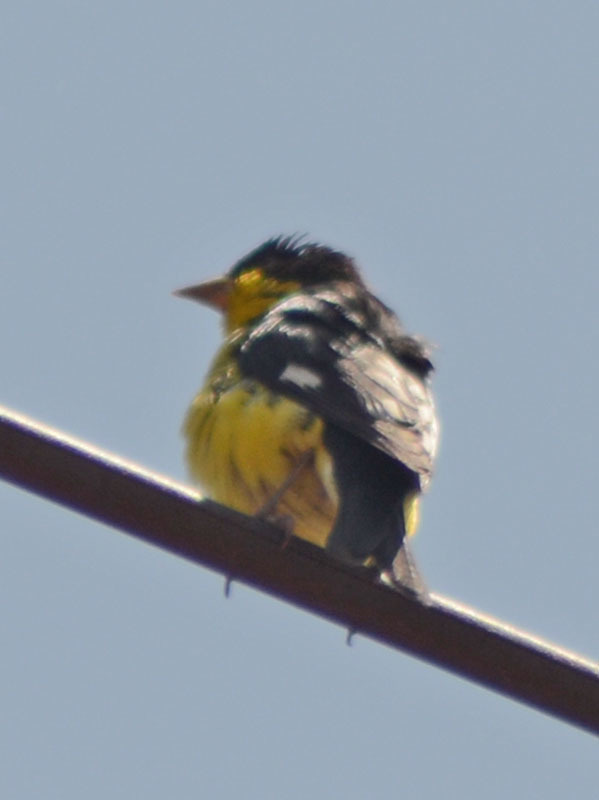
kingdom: Animalia
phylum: Chordata
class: Aves
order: Passeriformes
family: Fringillidae
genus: Spinus
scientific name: Spinus psaltria
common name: Lesser goldfinch
